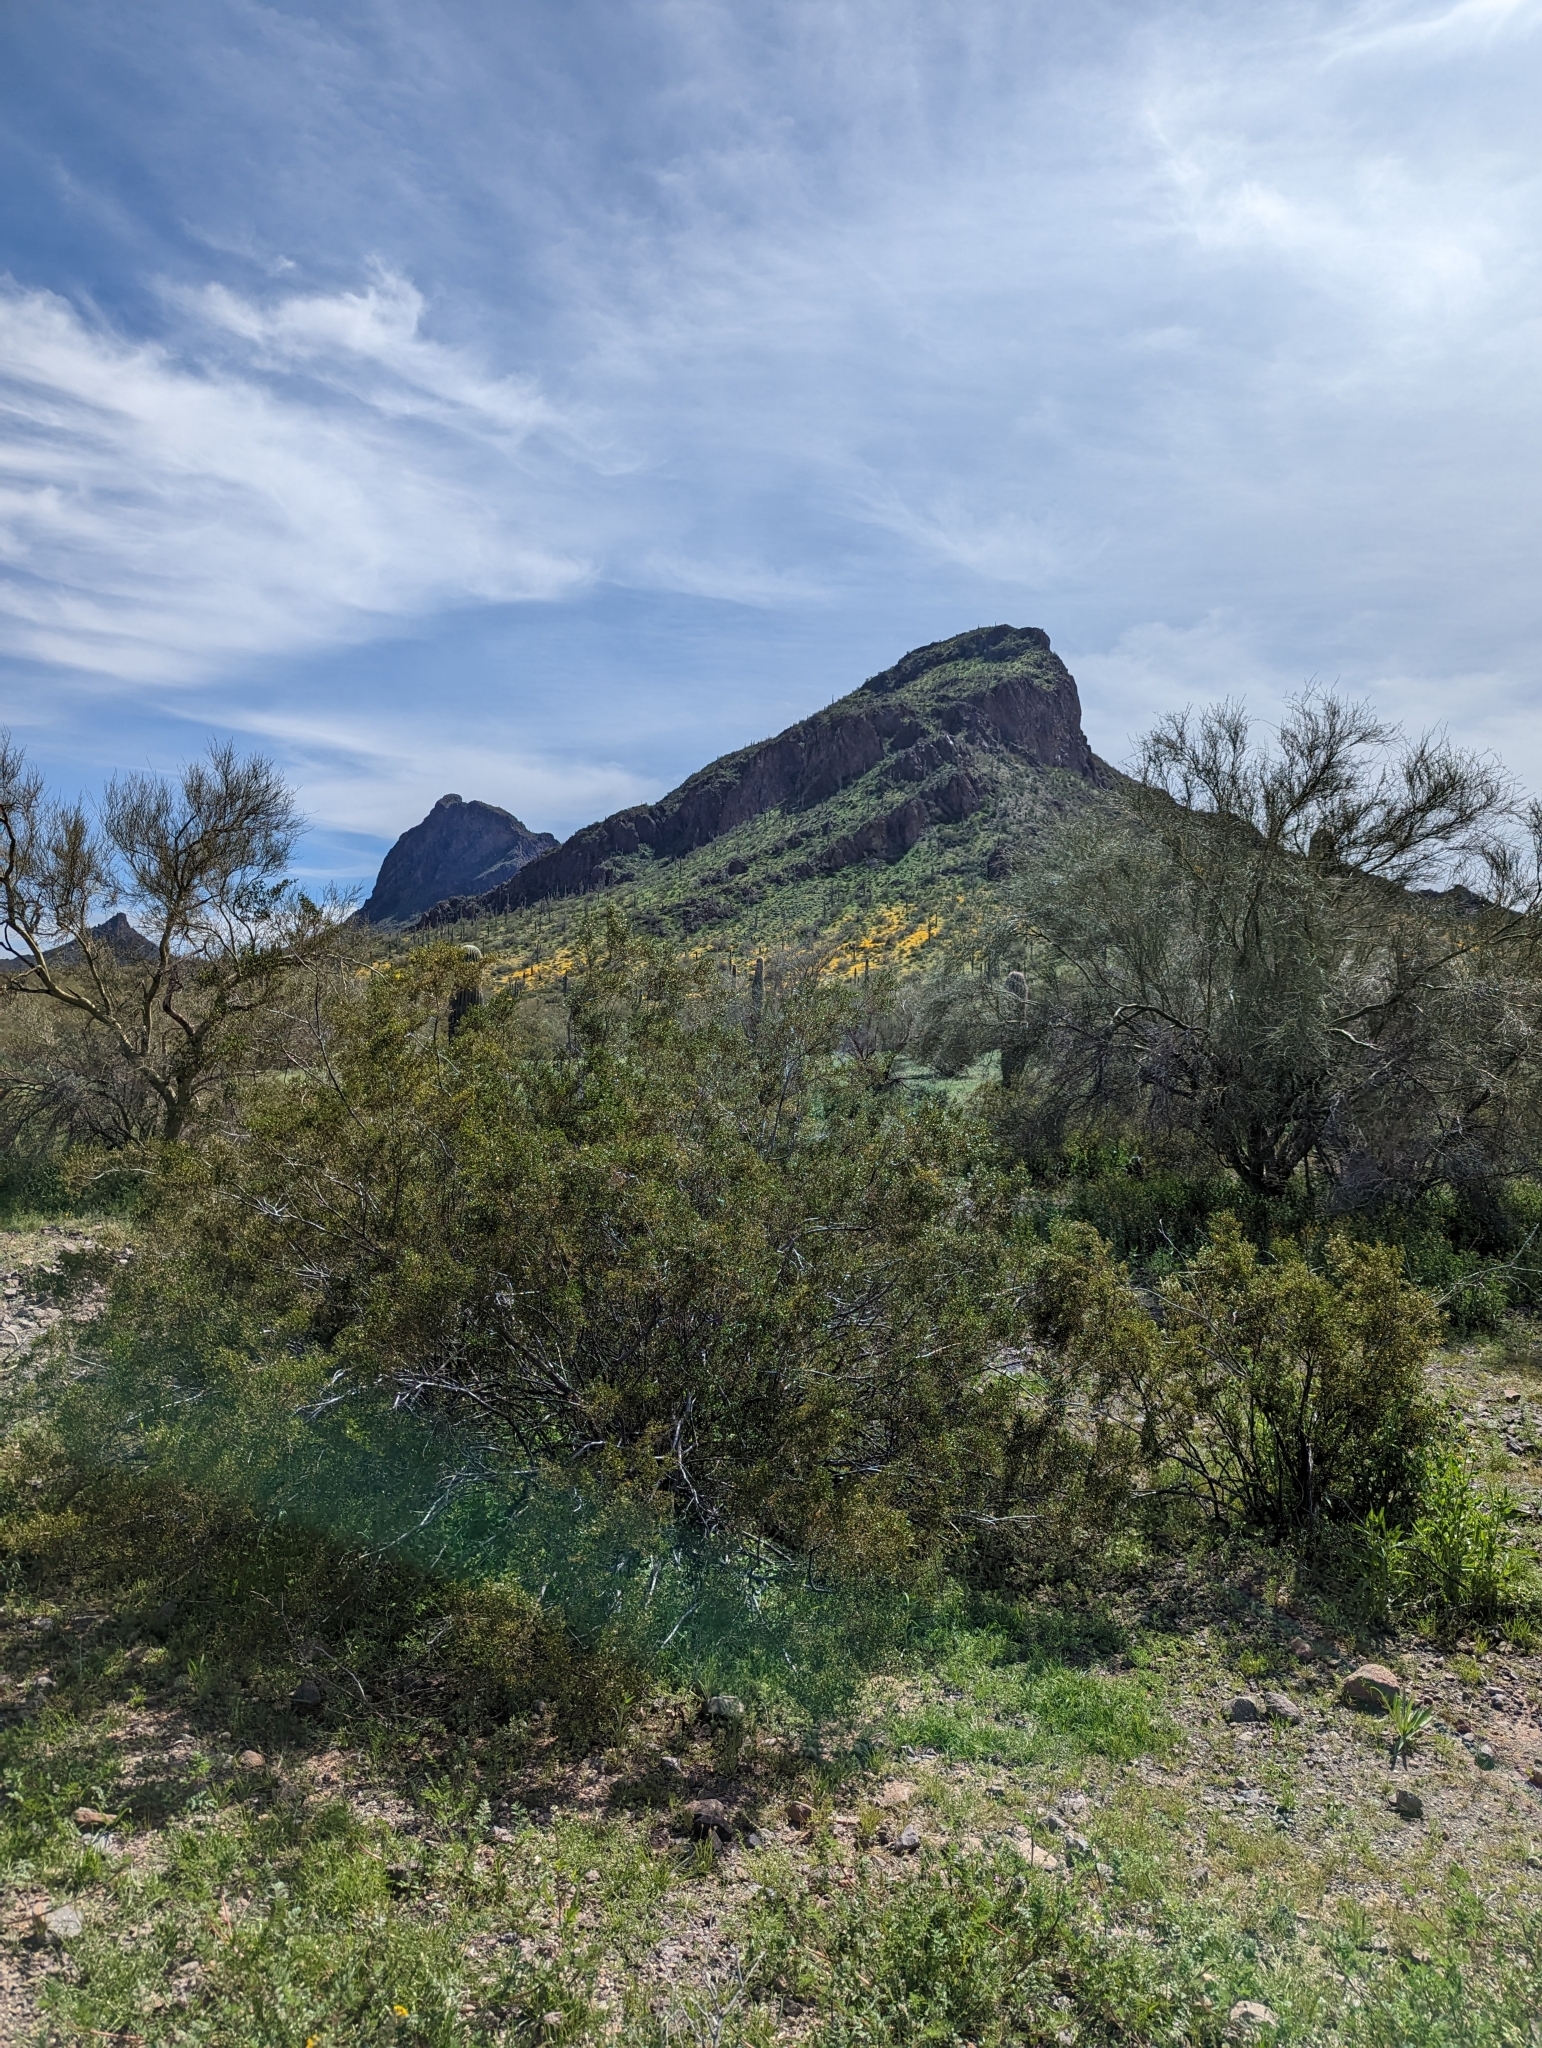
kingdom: Plantae
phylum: Tracheophyta
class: Magnoliopsida
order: Zygophyllales
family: Zygophyllaceae
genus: Larrea
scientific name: Larrea tridentata
